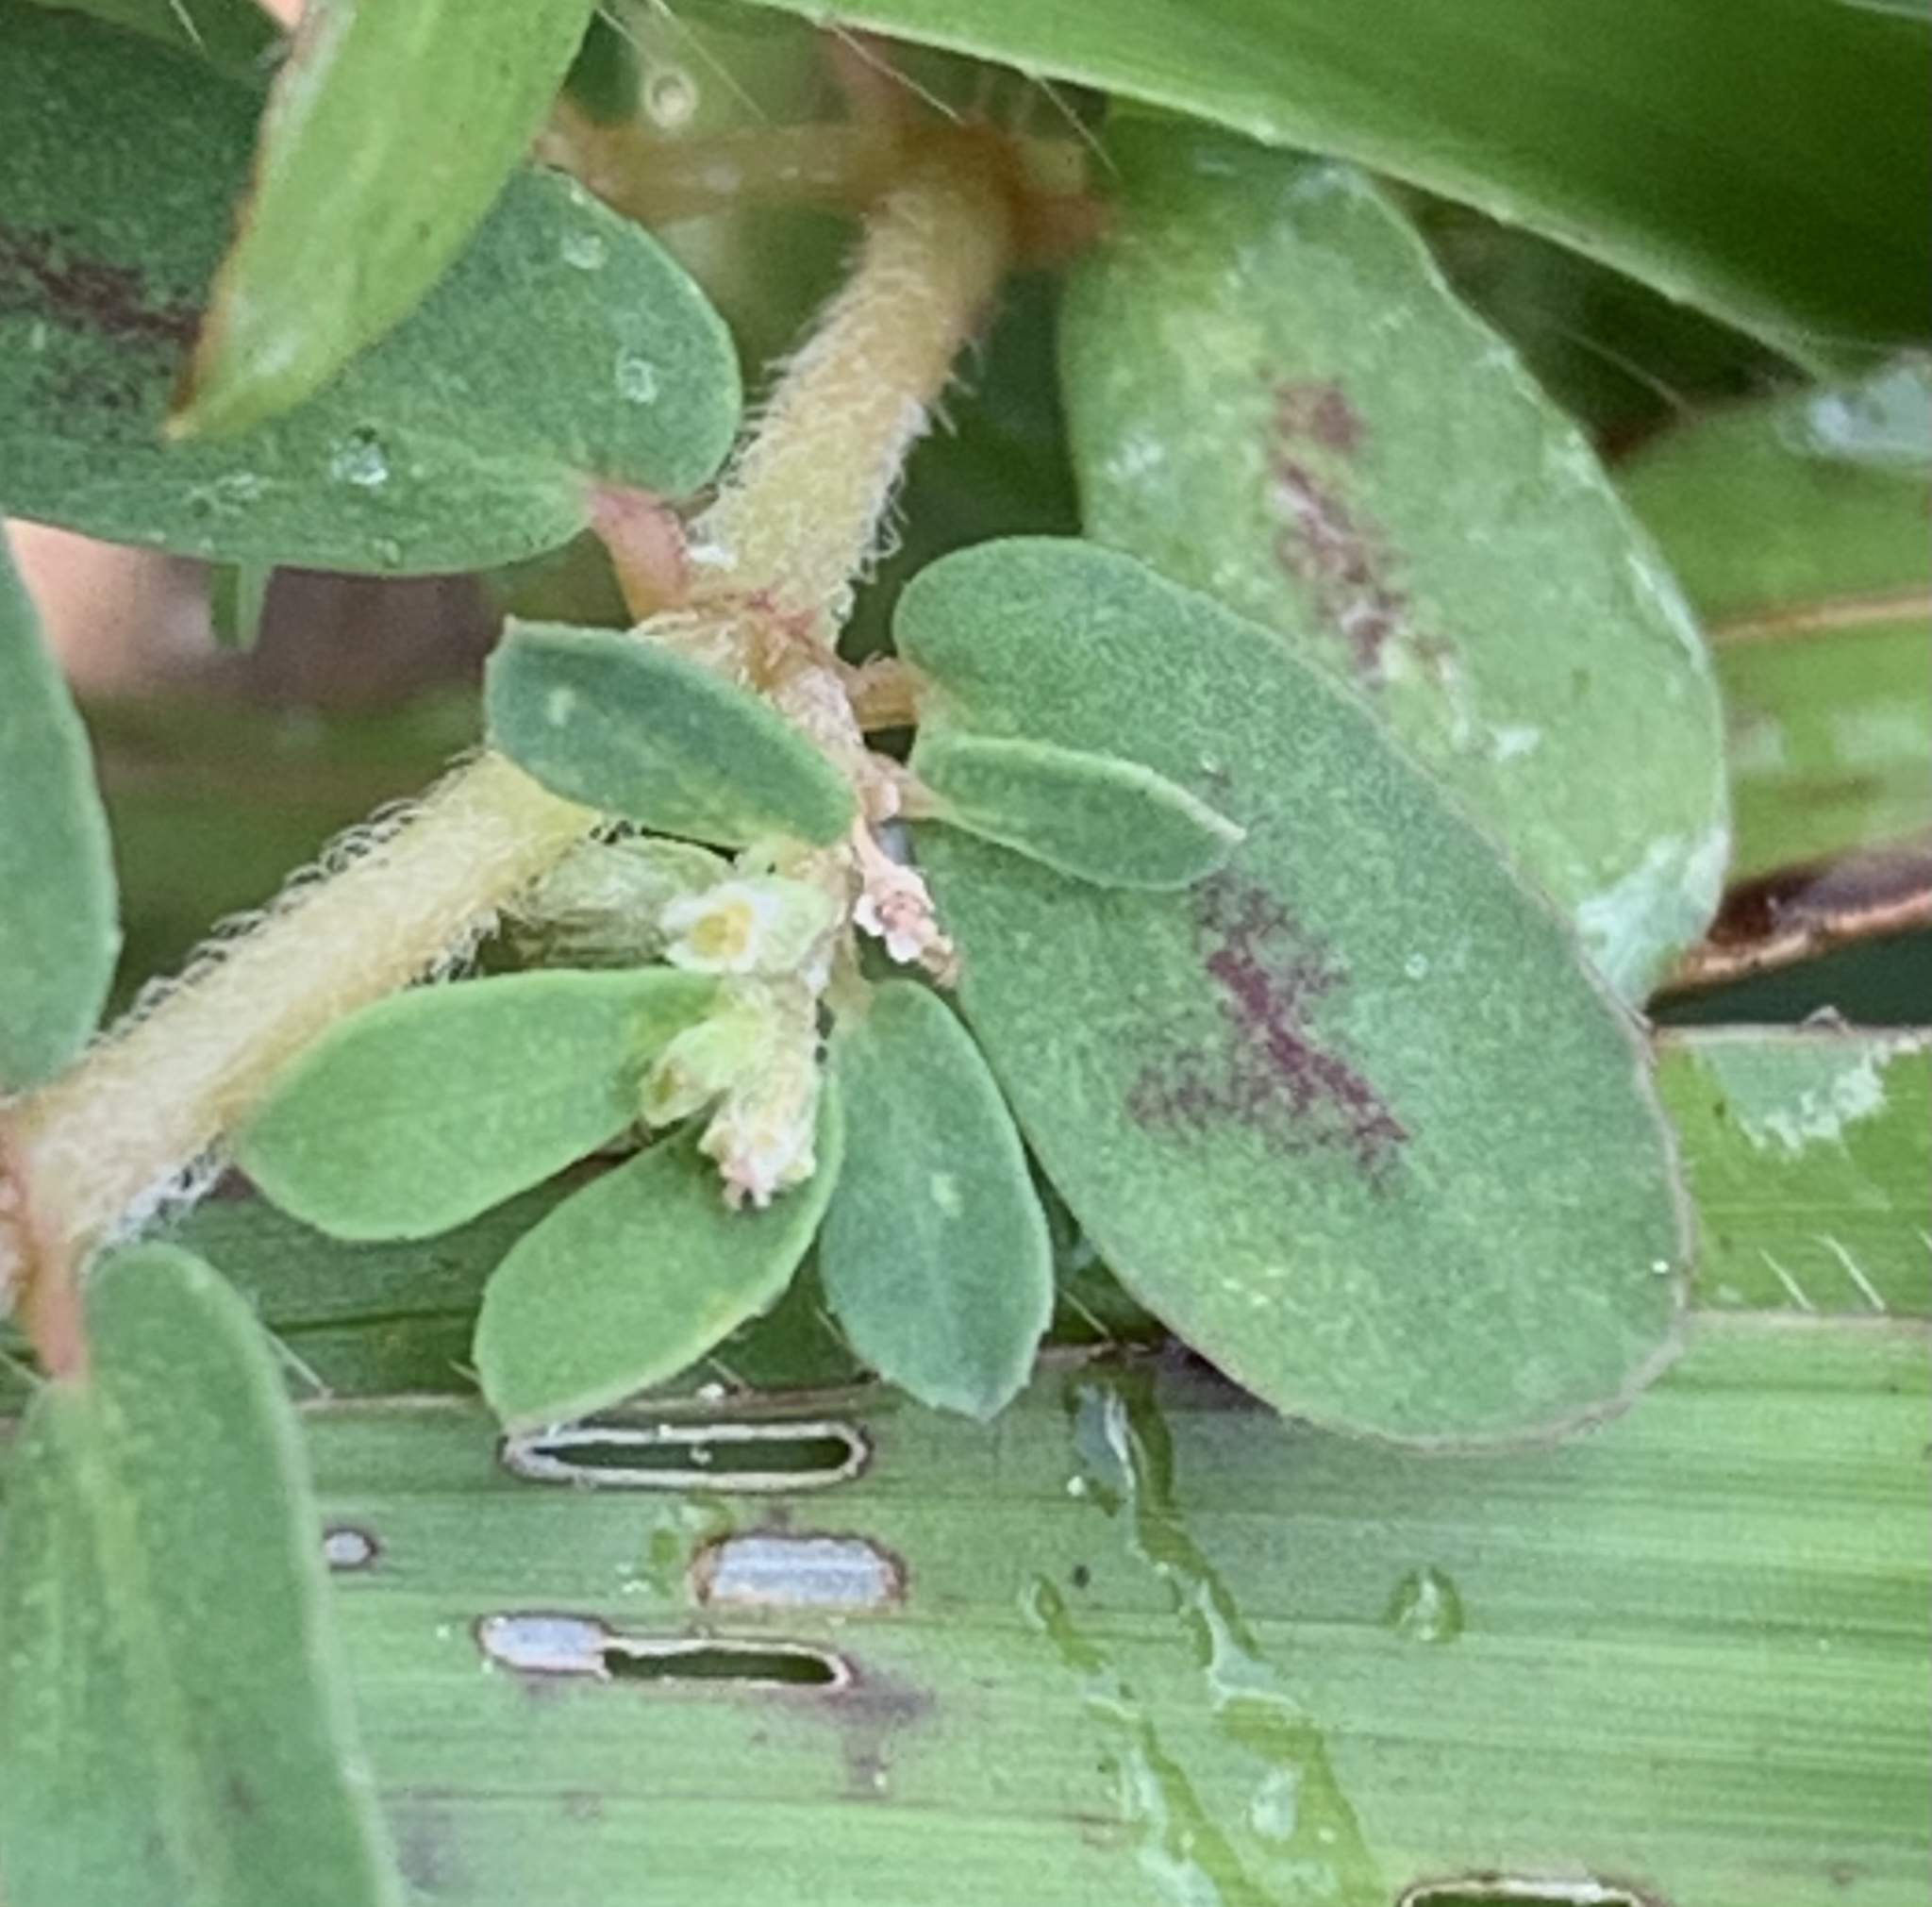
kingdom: Plantae
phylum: Tracheophyta
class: Magnoliopsida
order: Malpighiales
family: Euphorbiaceae
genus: Euphorbia
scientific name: Euphorbia maculata
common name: Spotted spurge
